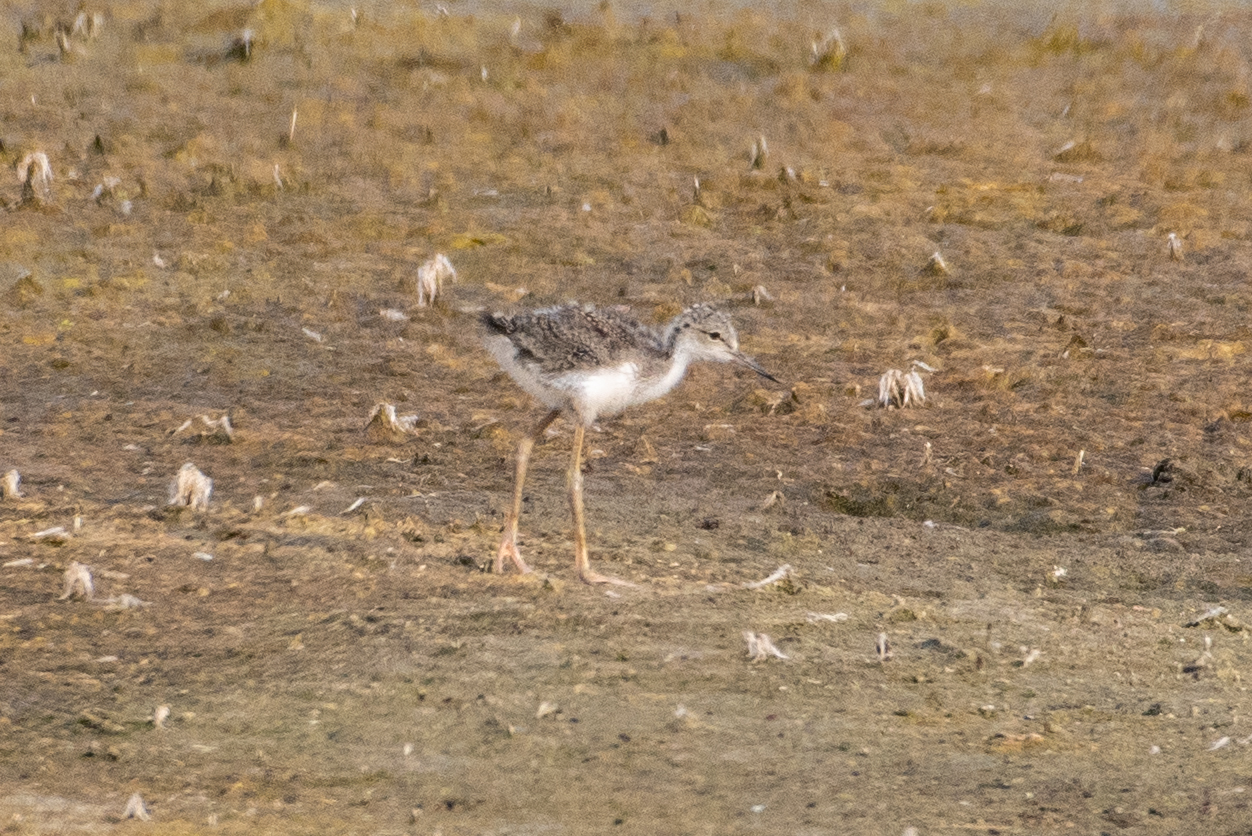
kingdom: Animalia
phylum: Chordata
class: Aves
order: Charadriiformes
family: Recurvirostridae
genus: Himantopus
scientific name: Himantopus mexicanus
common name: Black-necked stilt
